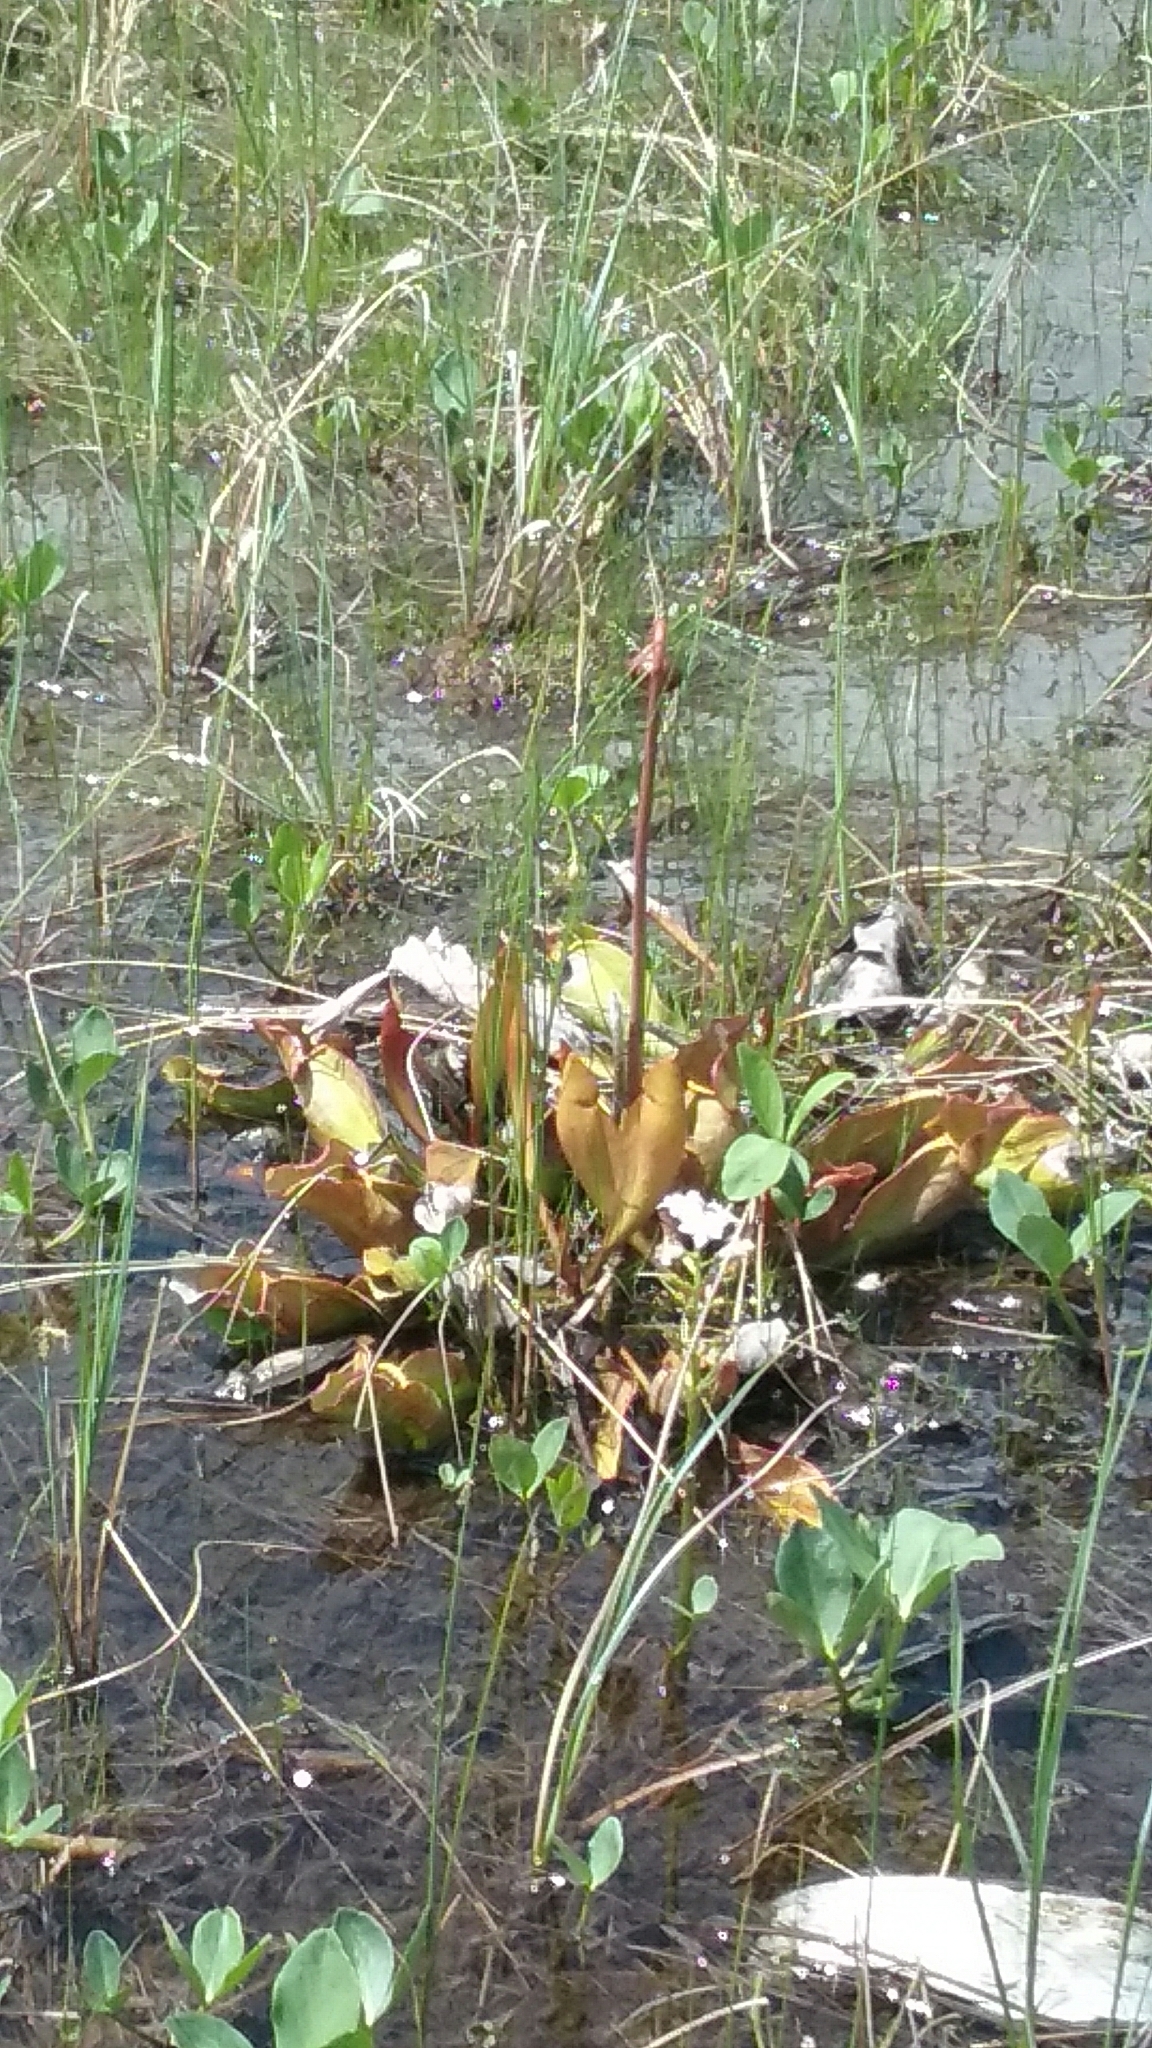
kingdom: Plantae
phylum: Tracheophyta
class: Magnoliopsida
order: Ericales
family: Sarraceniaceae
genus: Sarracenia
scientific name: Sarracenia purpurea
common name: Pitcherplant
